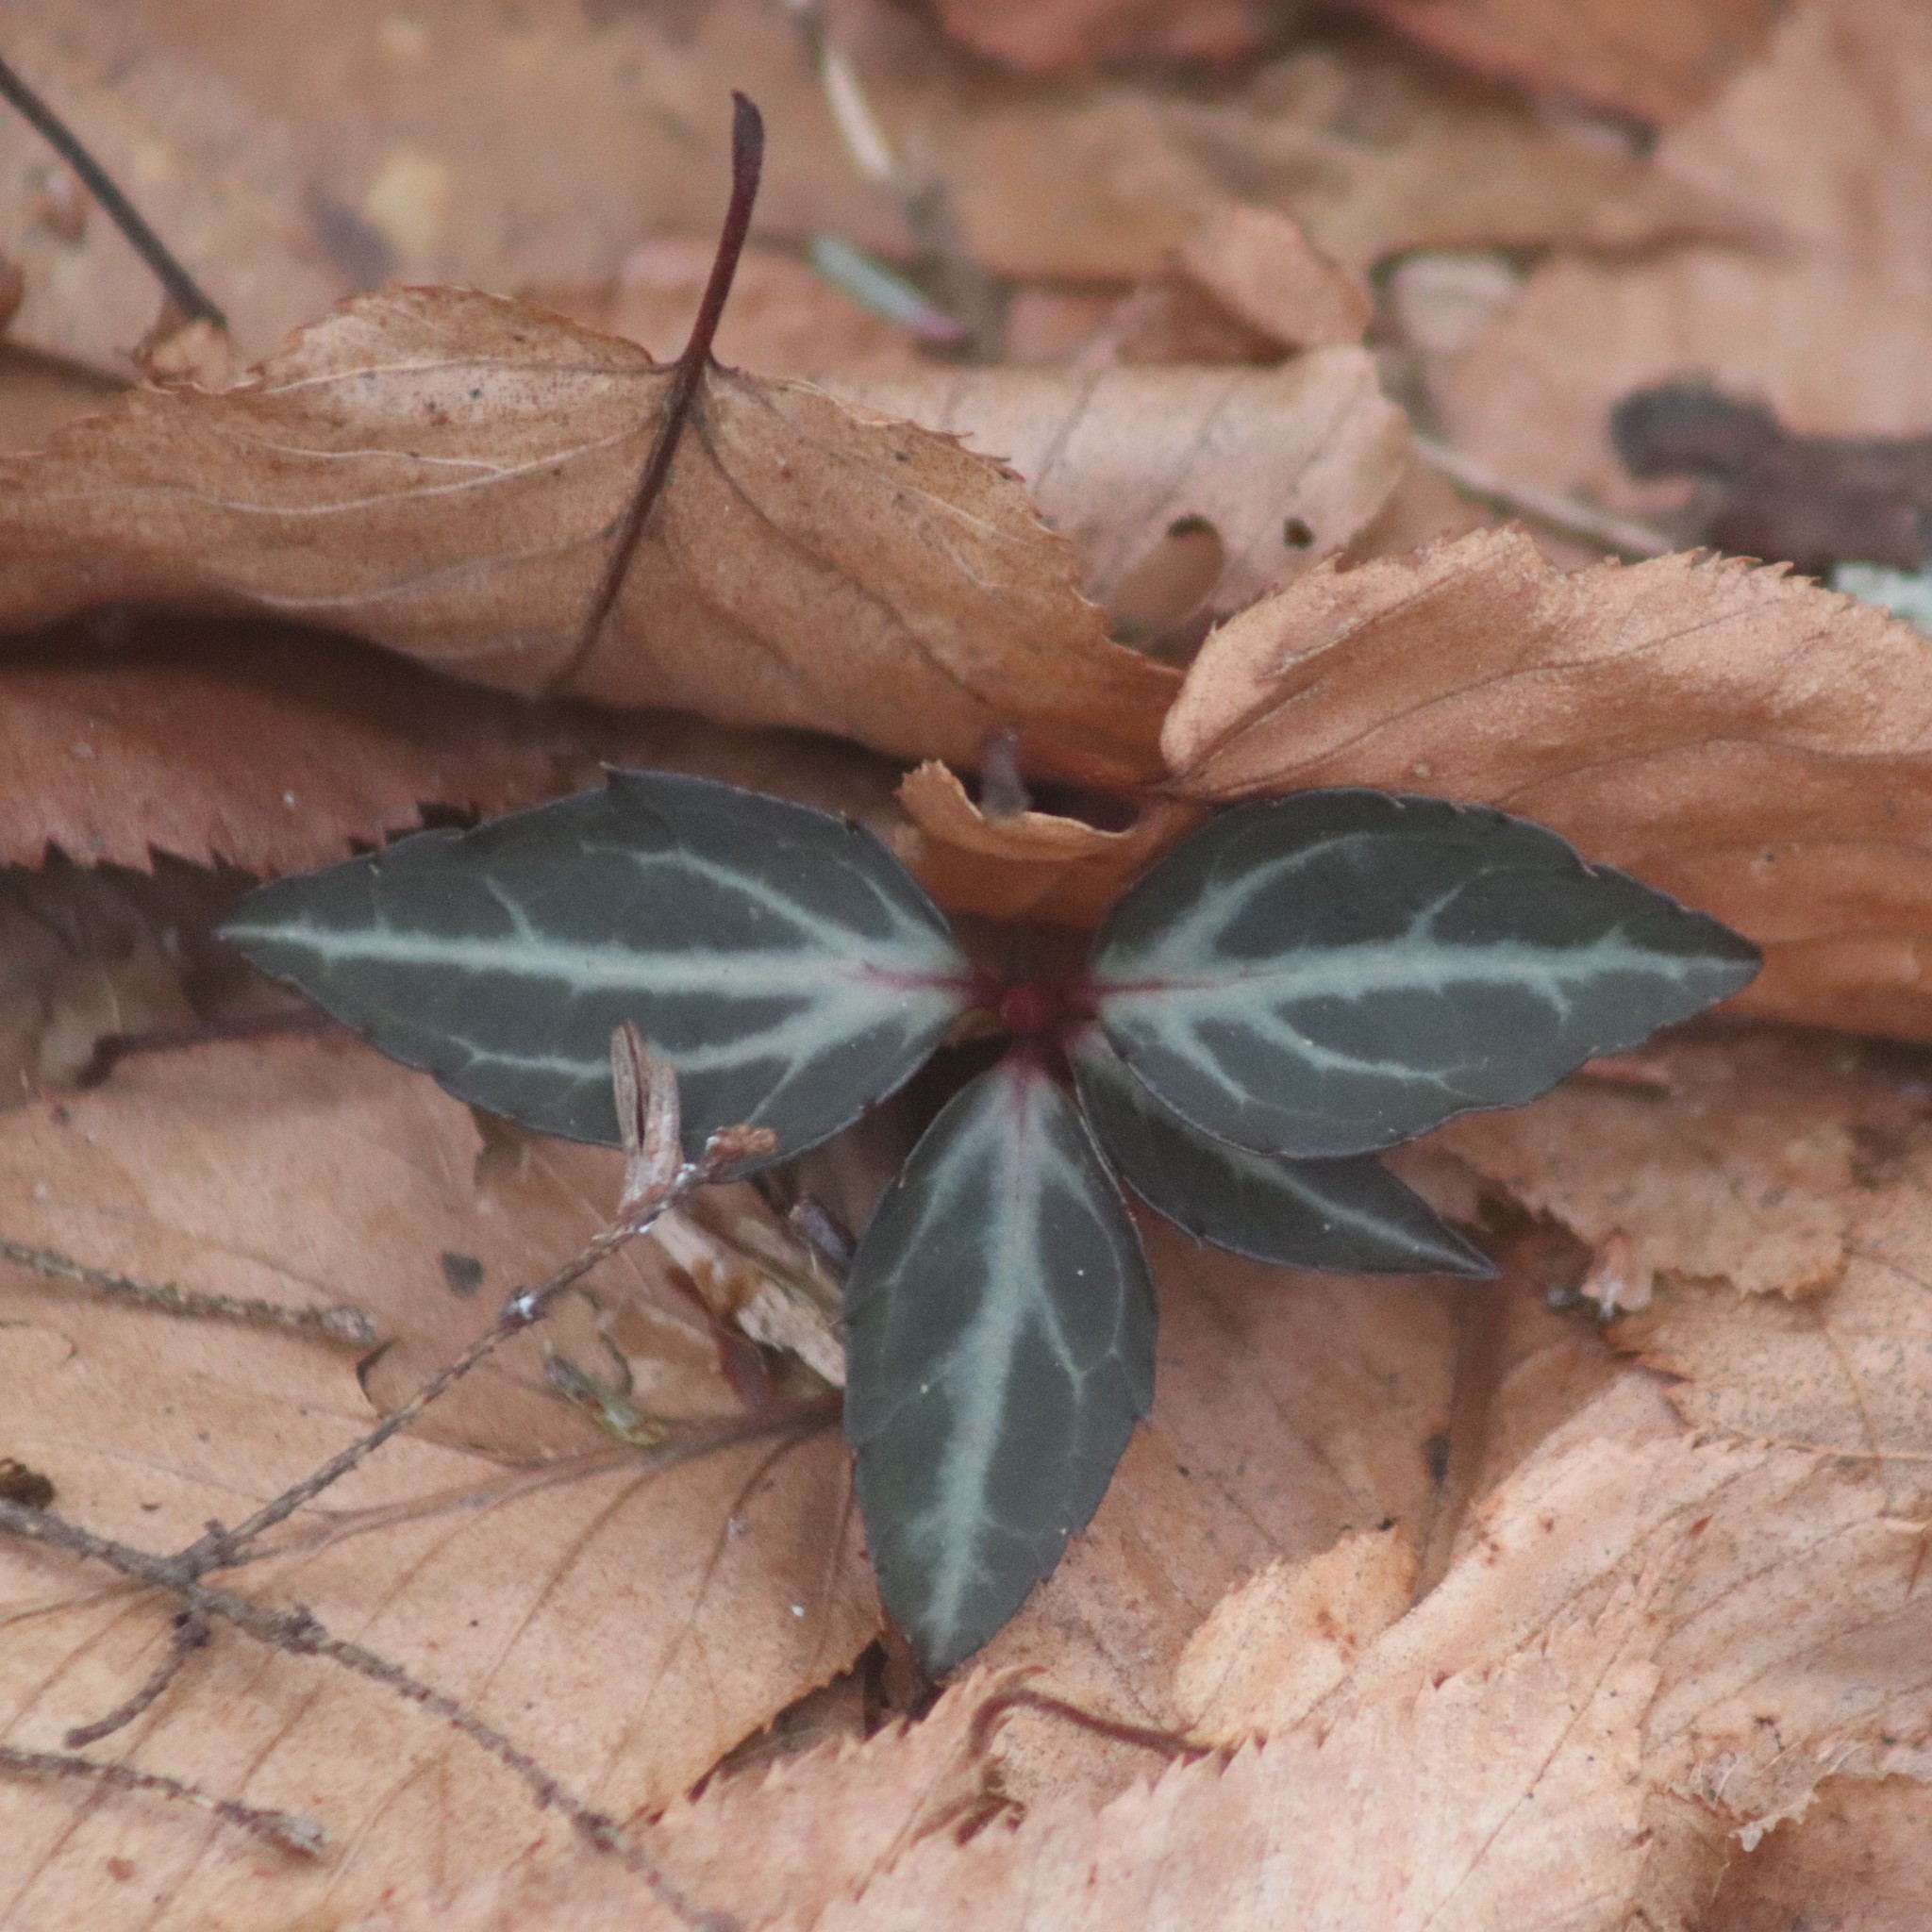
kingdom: Plantae
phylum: Tracheophyta
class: Magnoliopsida
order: Ericales
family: Ericaceae
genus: Chimaphila
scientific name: Chimaphila maculata
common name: Spotted pipsissewa
